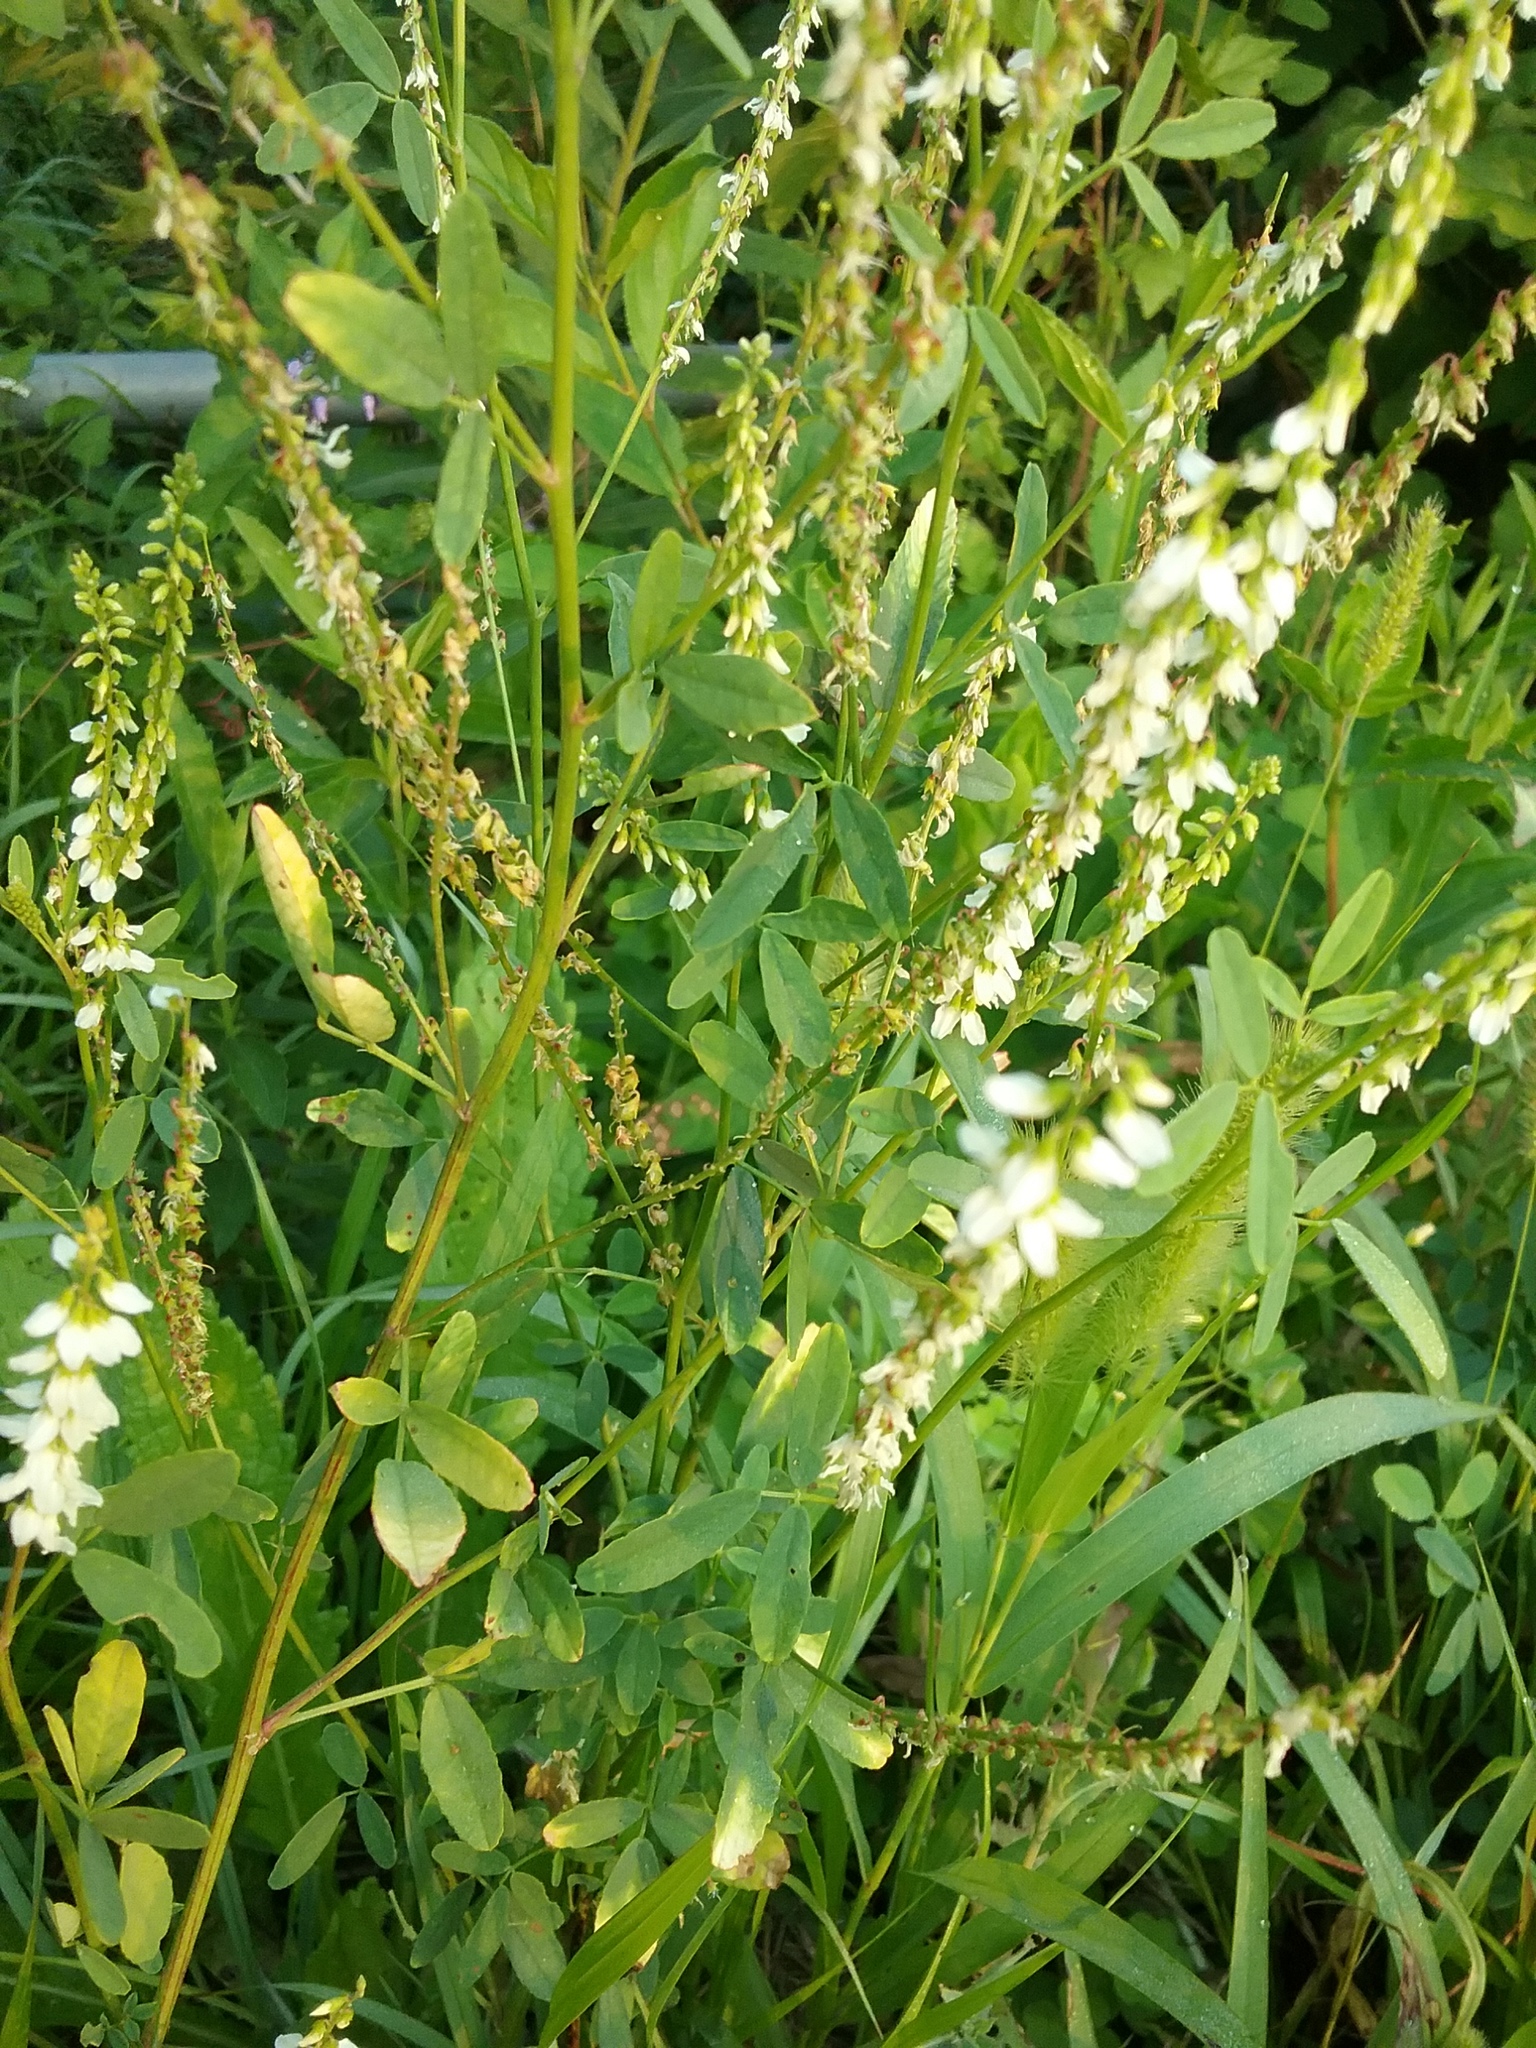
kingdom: Plantae
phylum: Tracheophyta
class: Magnoliopsida
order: Fabales
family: Fabaceae
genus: Melilotus
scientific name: Melilotus albus
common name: White melilot
